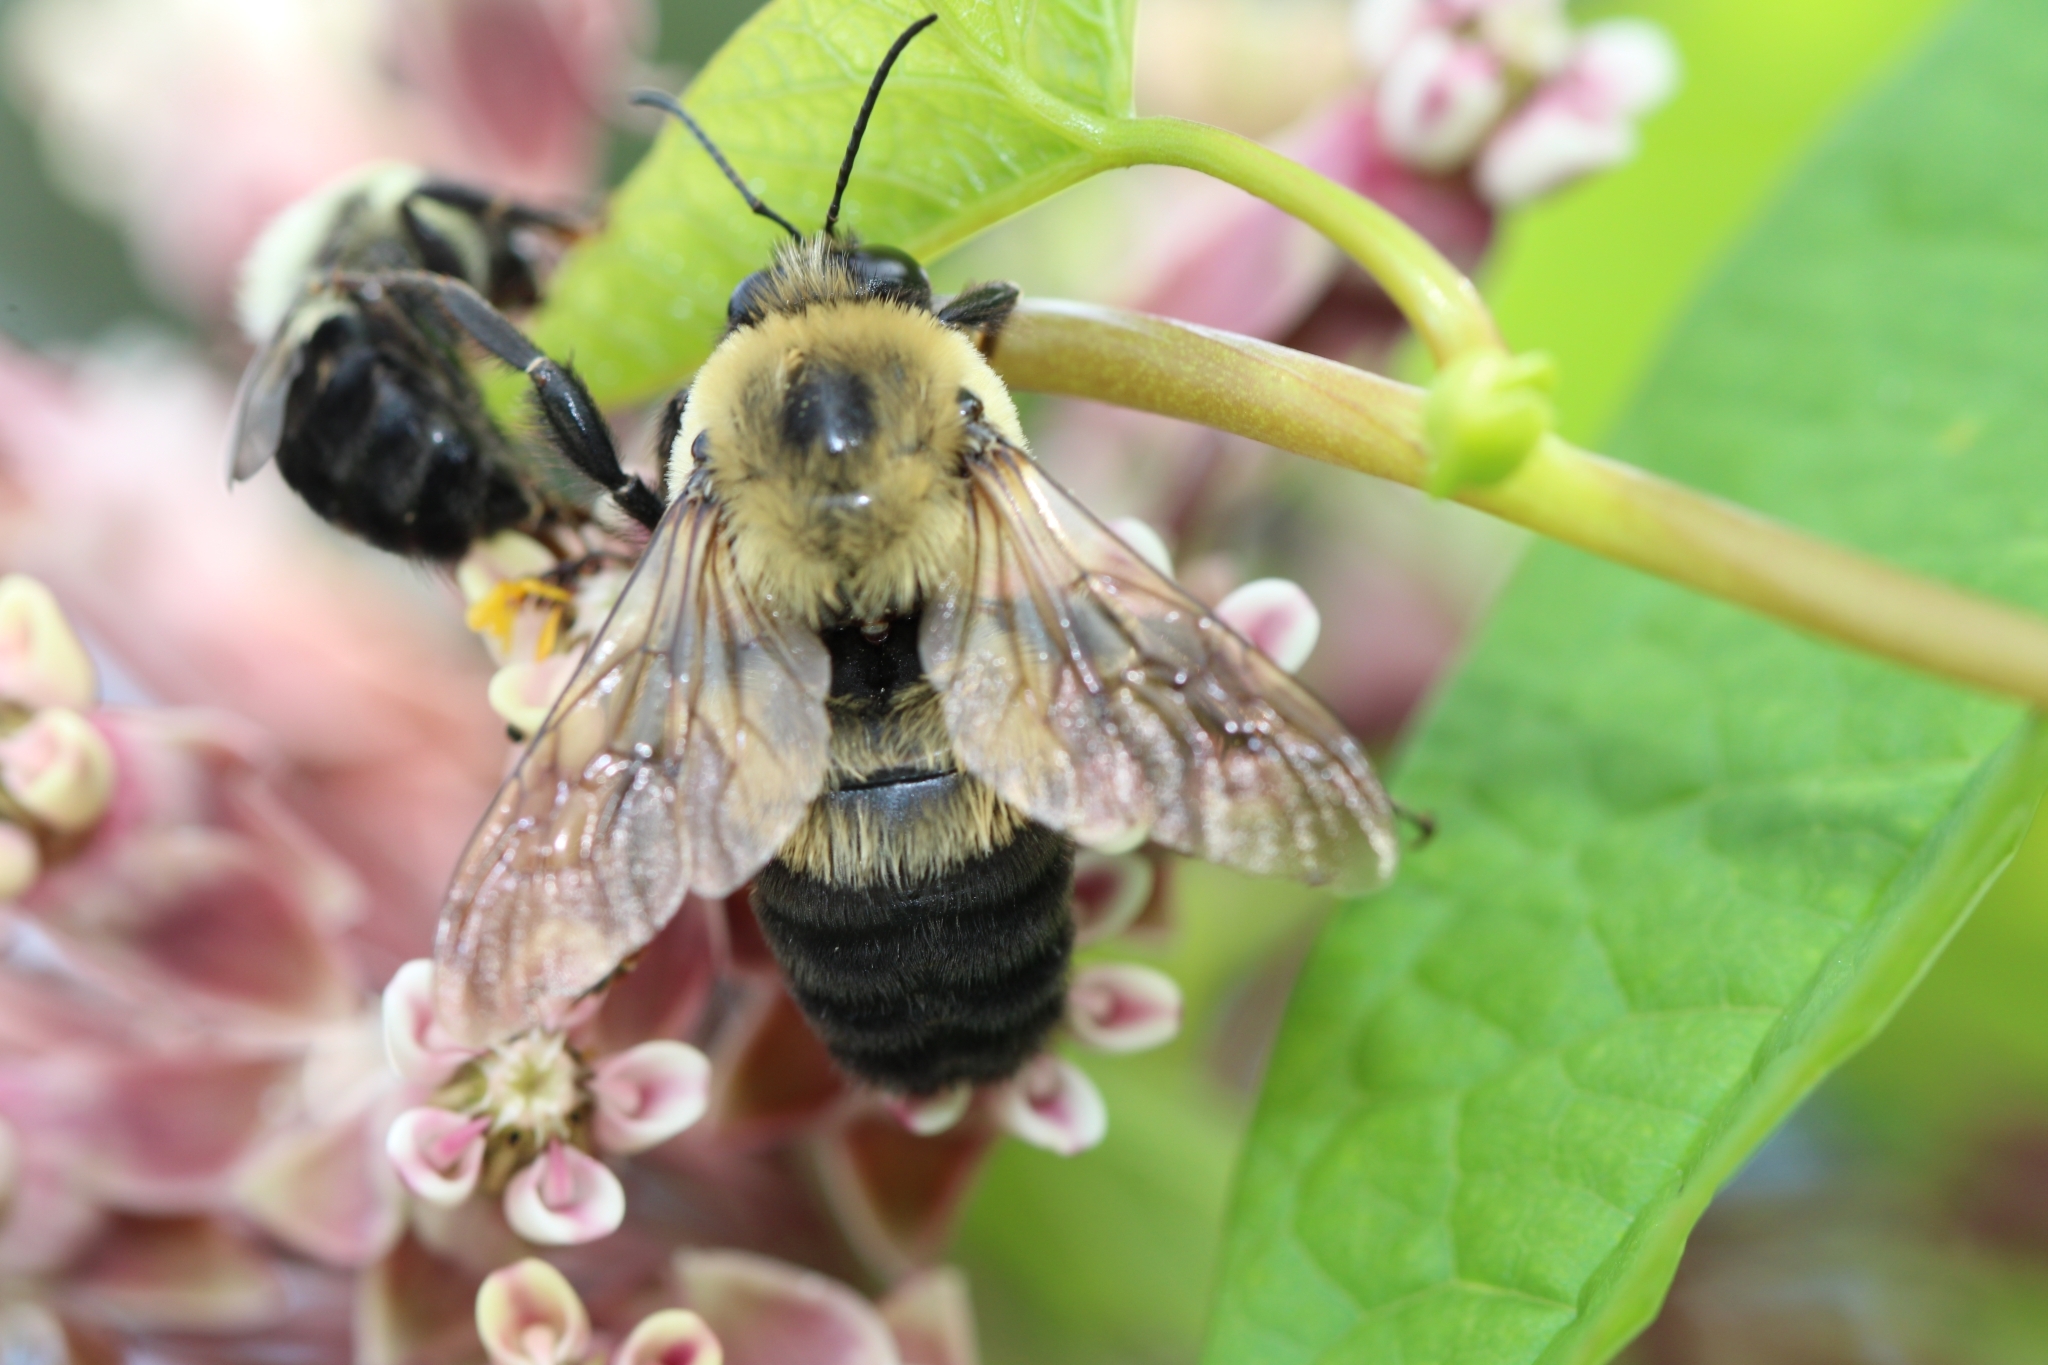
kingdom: Animalia
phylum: Arthropoda
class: Insecta
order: Hymenoptera
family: Apidae
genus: Bombus
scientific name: Bombus griseocollis
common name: Brown-belted bumble bee
